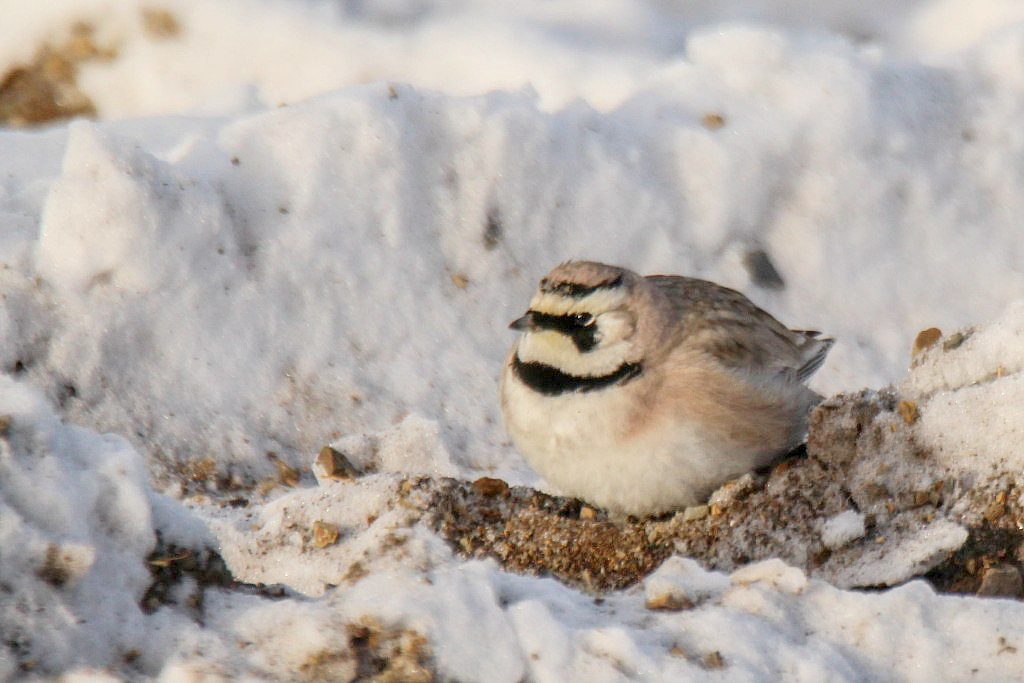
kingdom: Animalia
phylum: Chordata
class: Aves
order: Passeriformes
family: Alaudidae
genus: Eremophila
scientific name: Eremophila alpestris
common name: Horned lark
